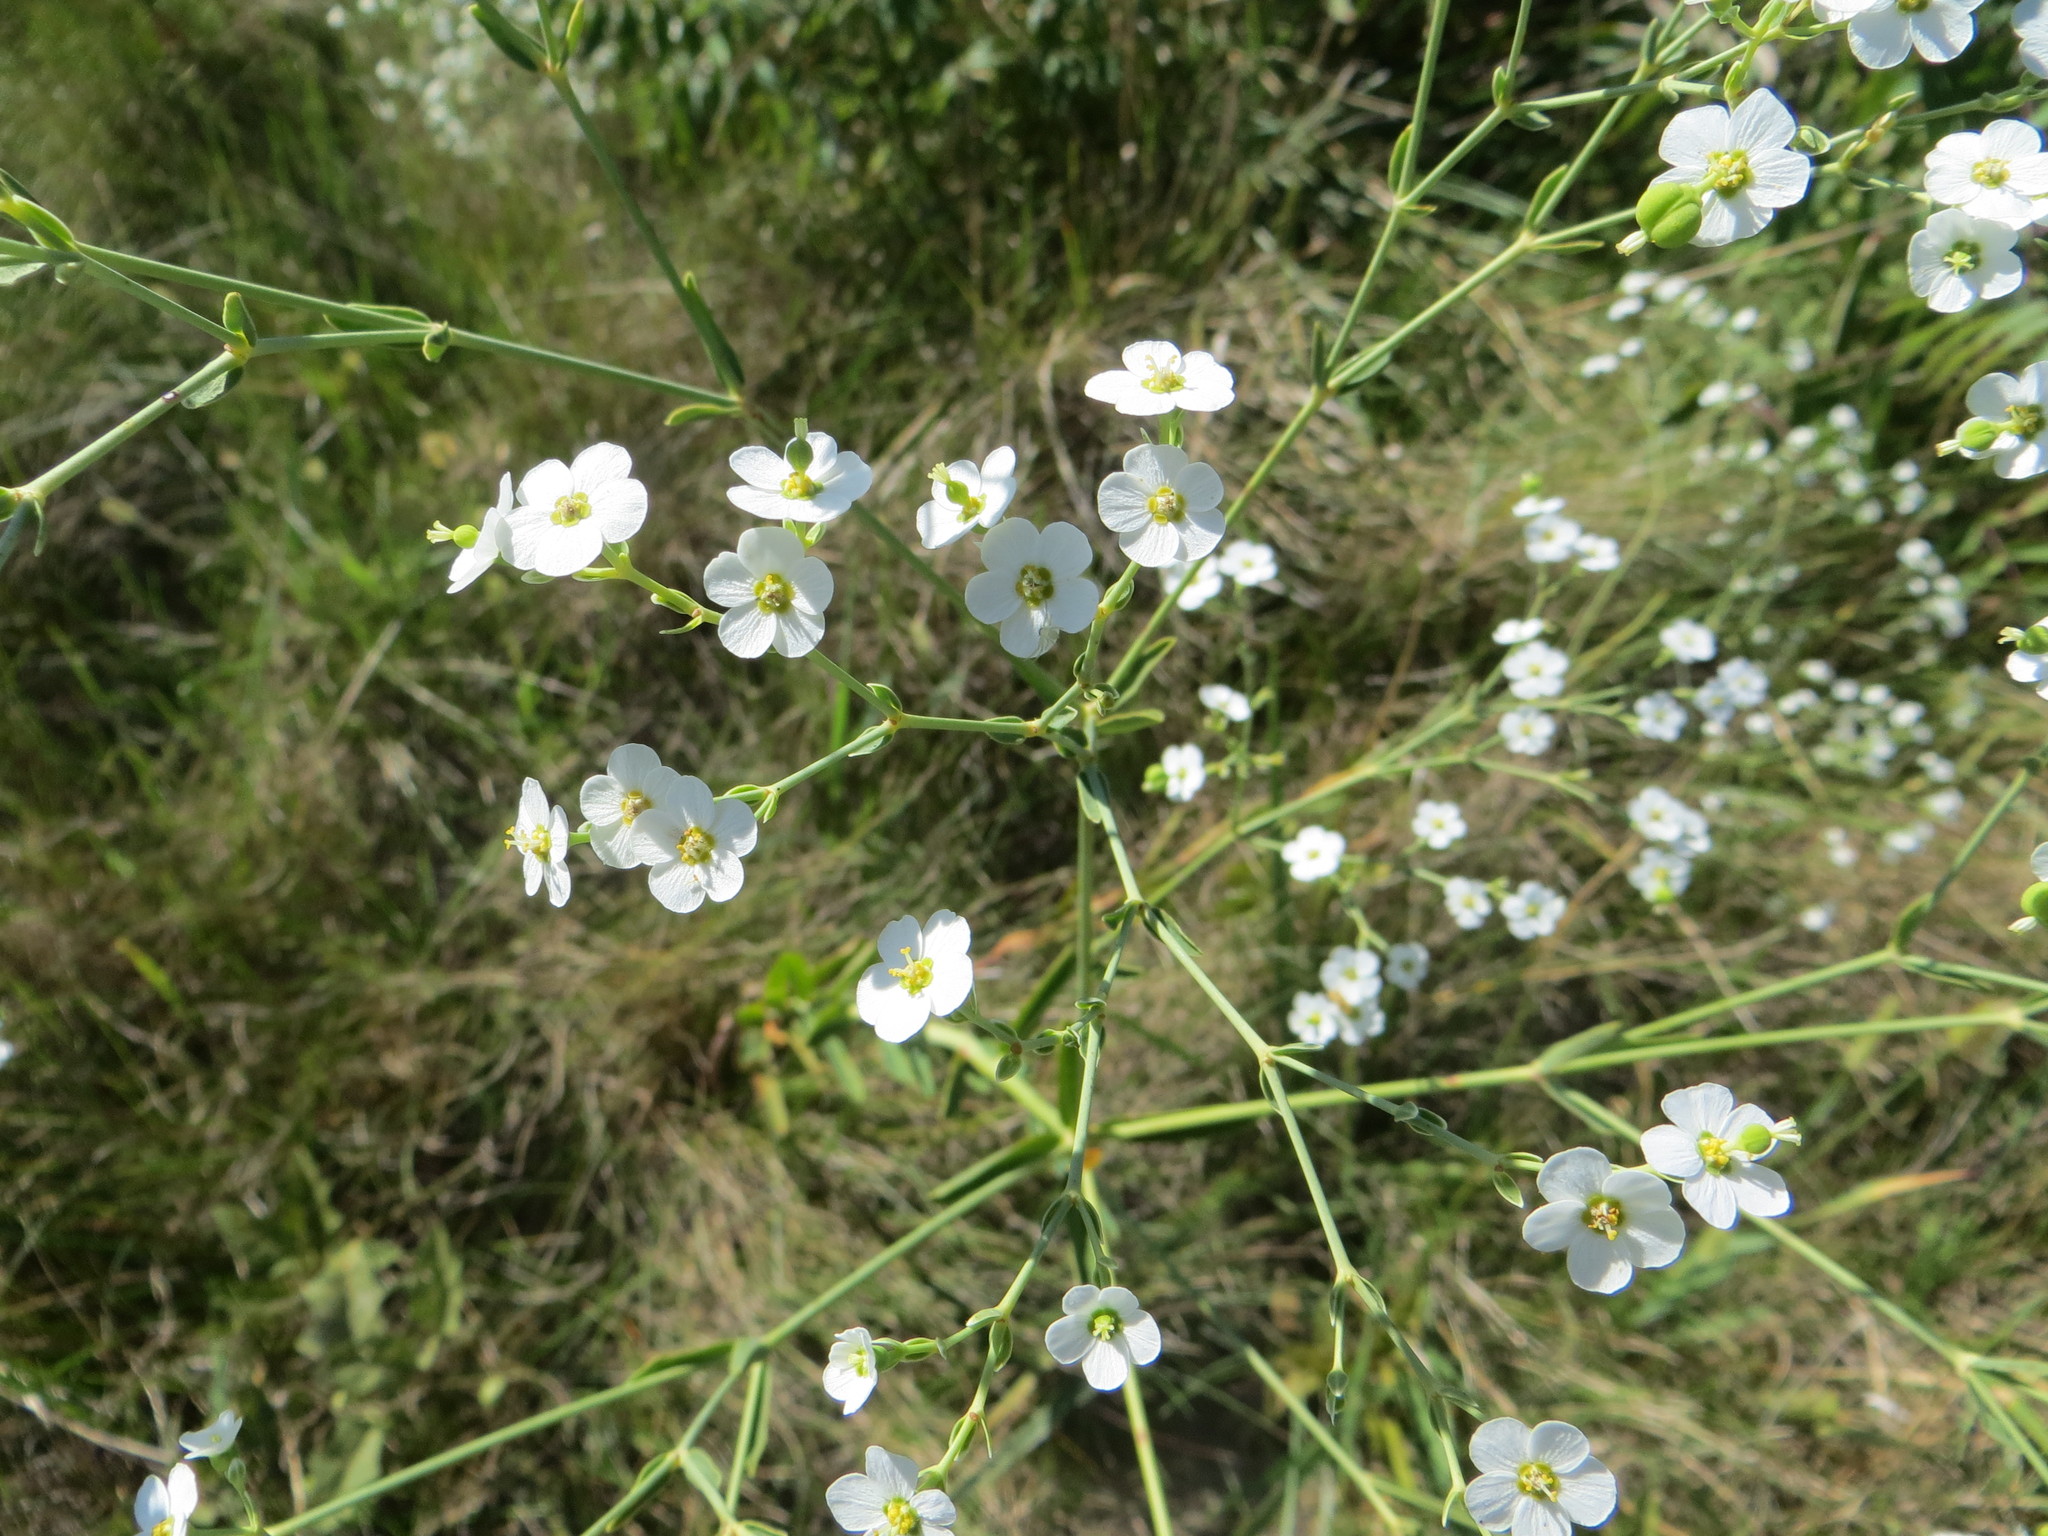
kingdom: Plantae
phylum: Tracheophyta
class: Magnoliopsida
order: Malpighiales
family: Euphorbiaceae
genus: Euphorbia
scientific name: Euphorbia corollata
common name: Flowering spurge
